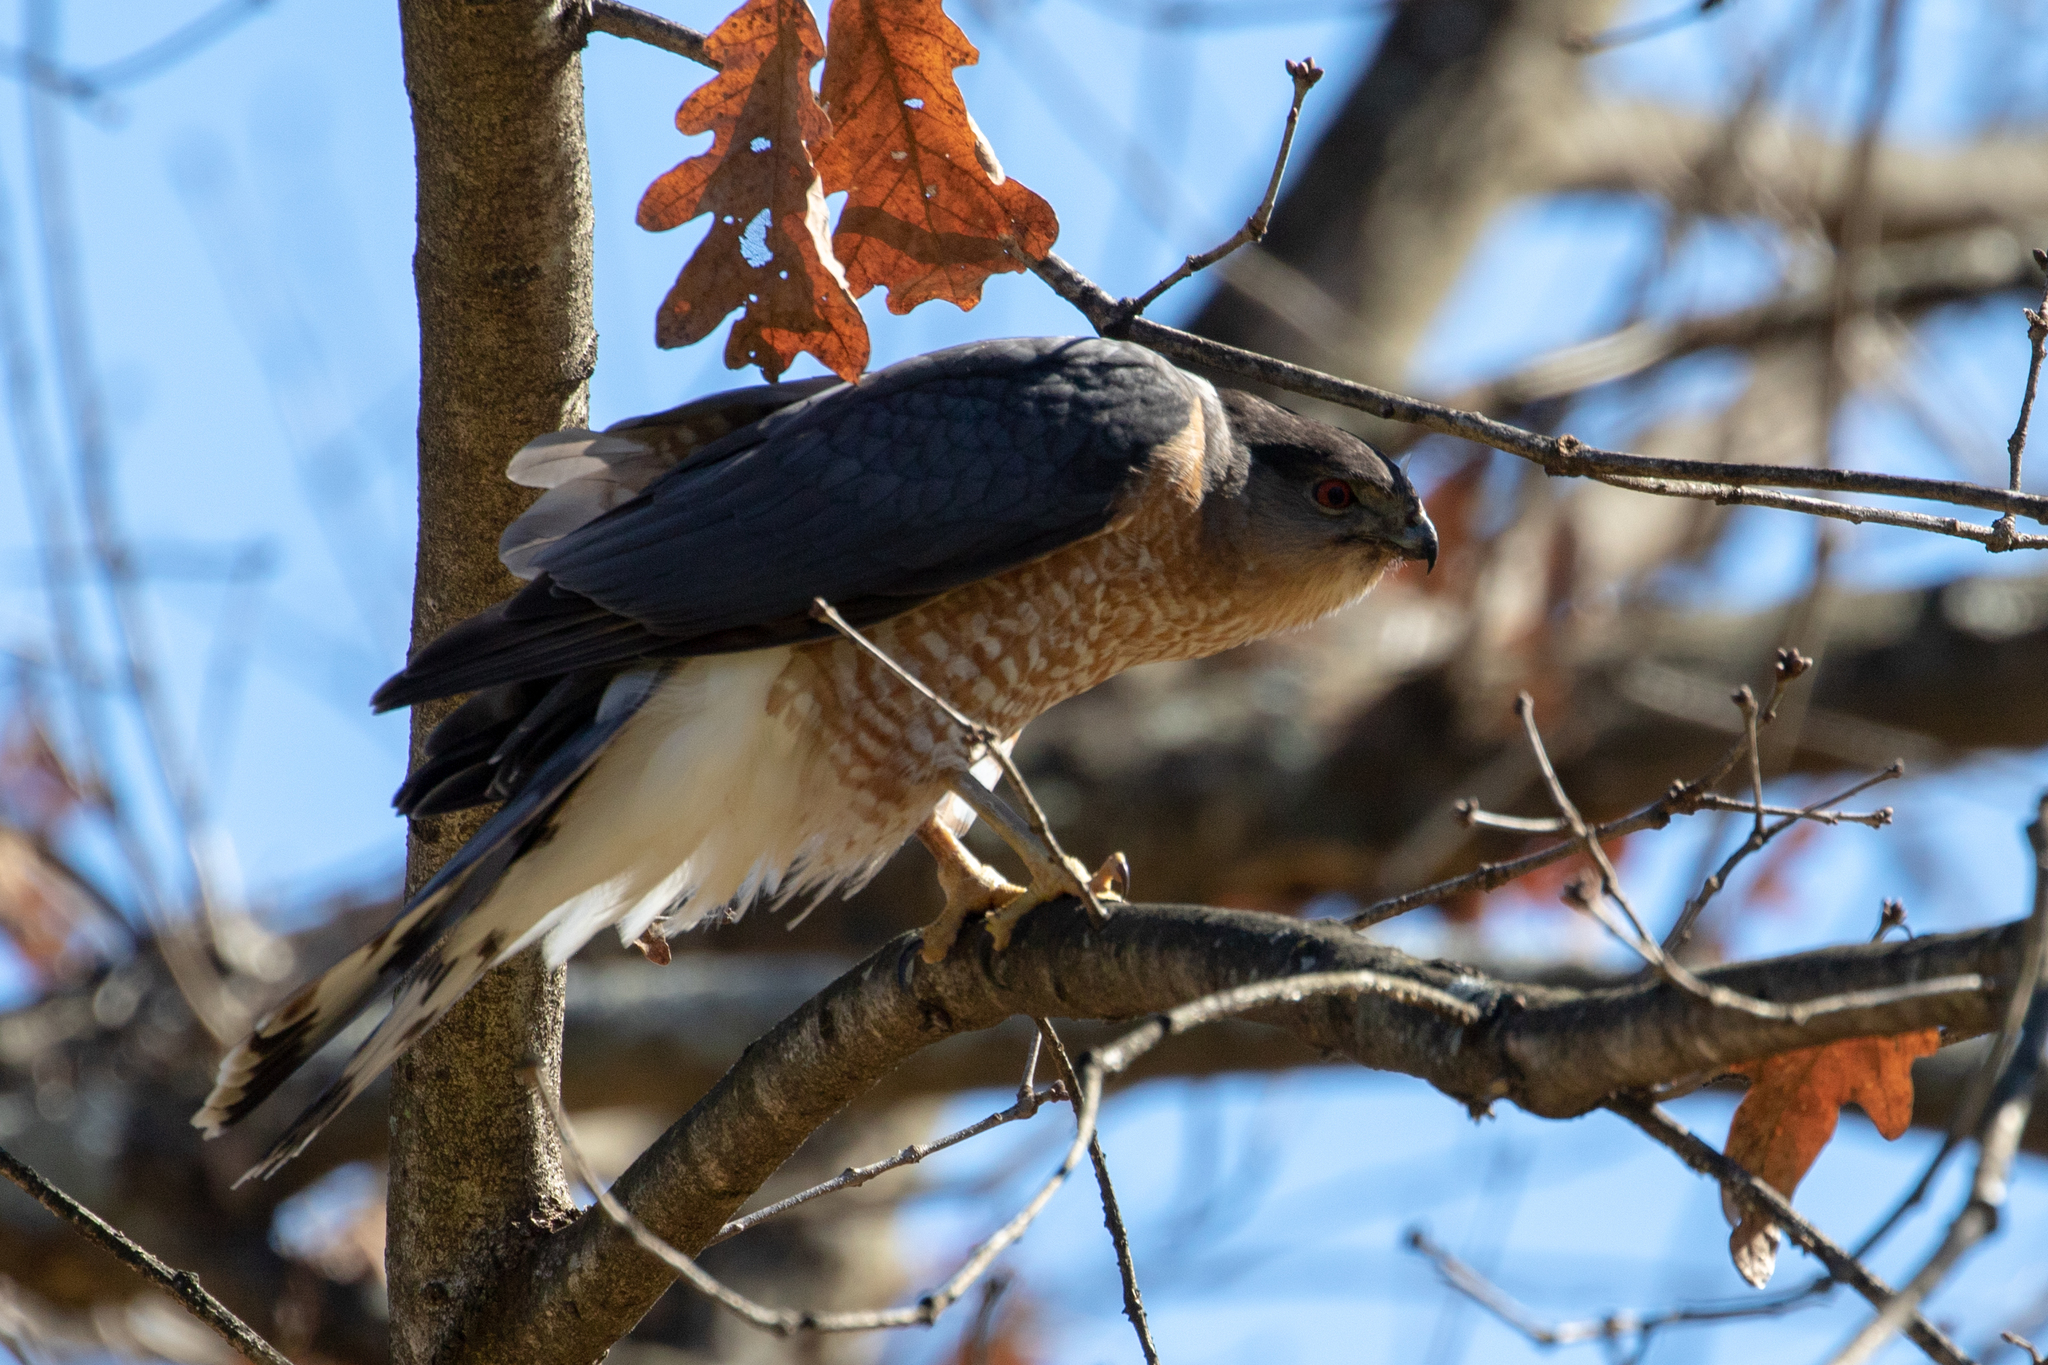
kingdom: Animalia
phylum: Chordata
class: Aves
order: Accipitriformes
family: Accipitridae
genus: Accipiter
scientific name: Accipiter cooperii
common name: Cooper's hawk
